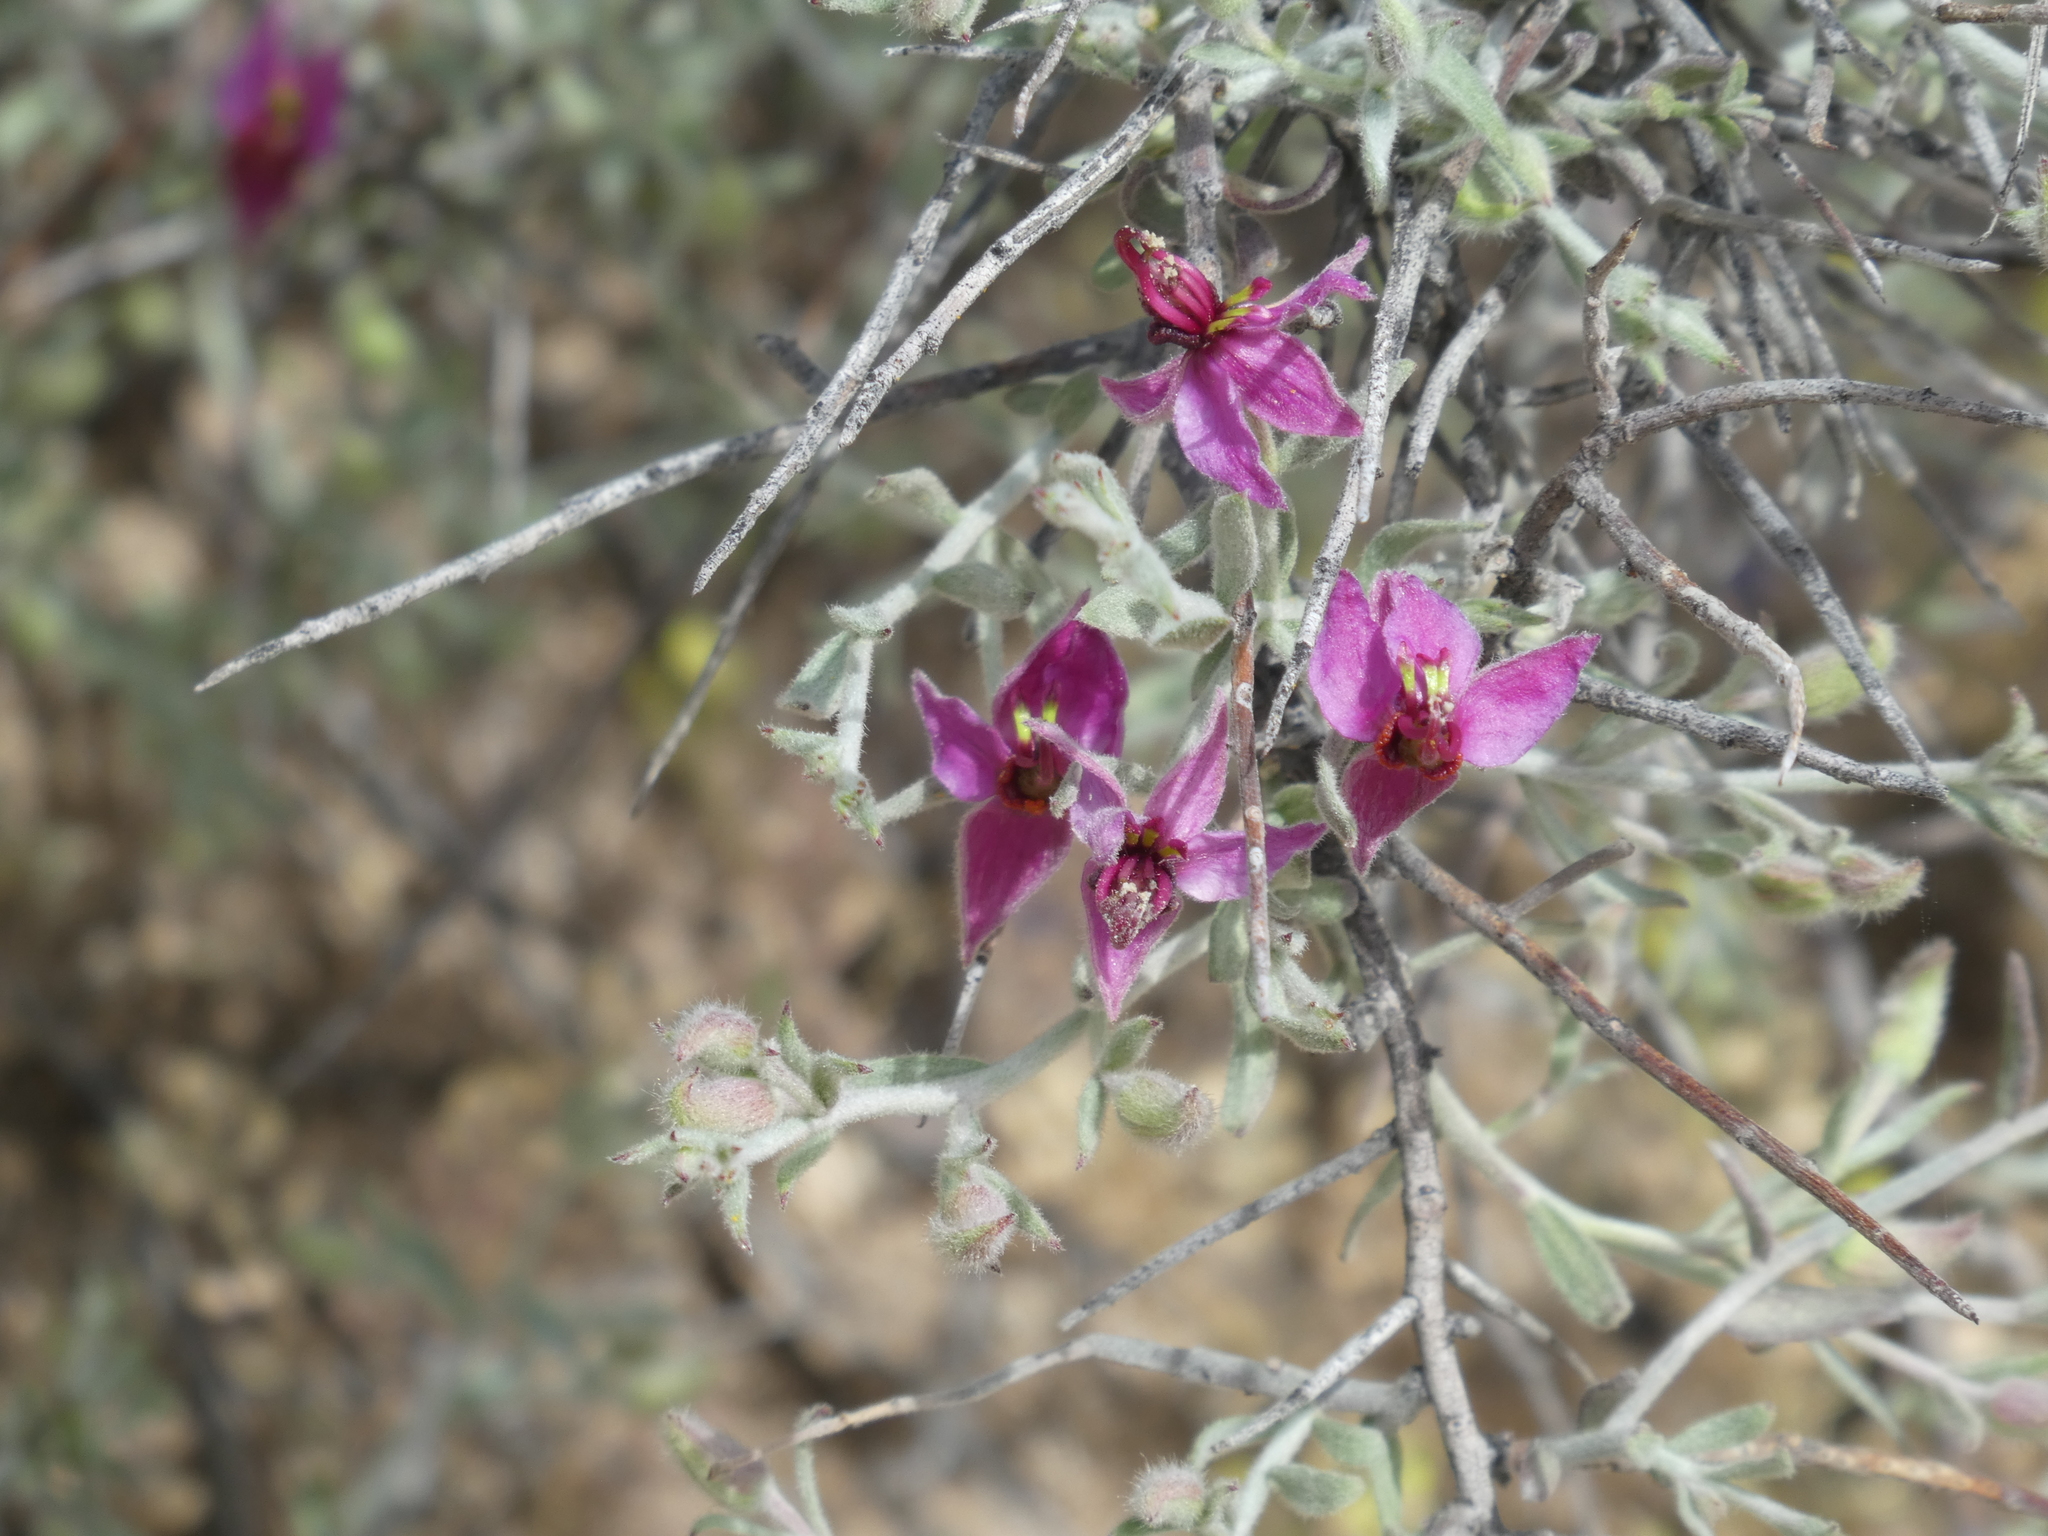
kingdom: Plantae
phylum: Tracheophyta
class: Magnoliopsida
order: Zygophyllales
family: Krameriaceae
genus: Krameria
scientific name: Krameria bicolor
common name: White ratany
